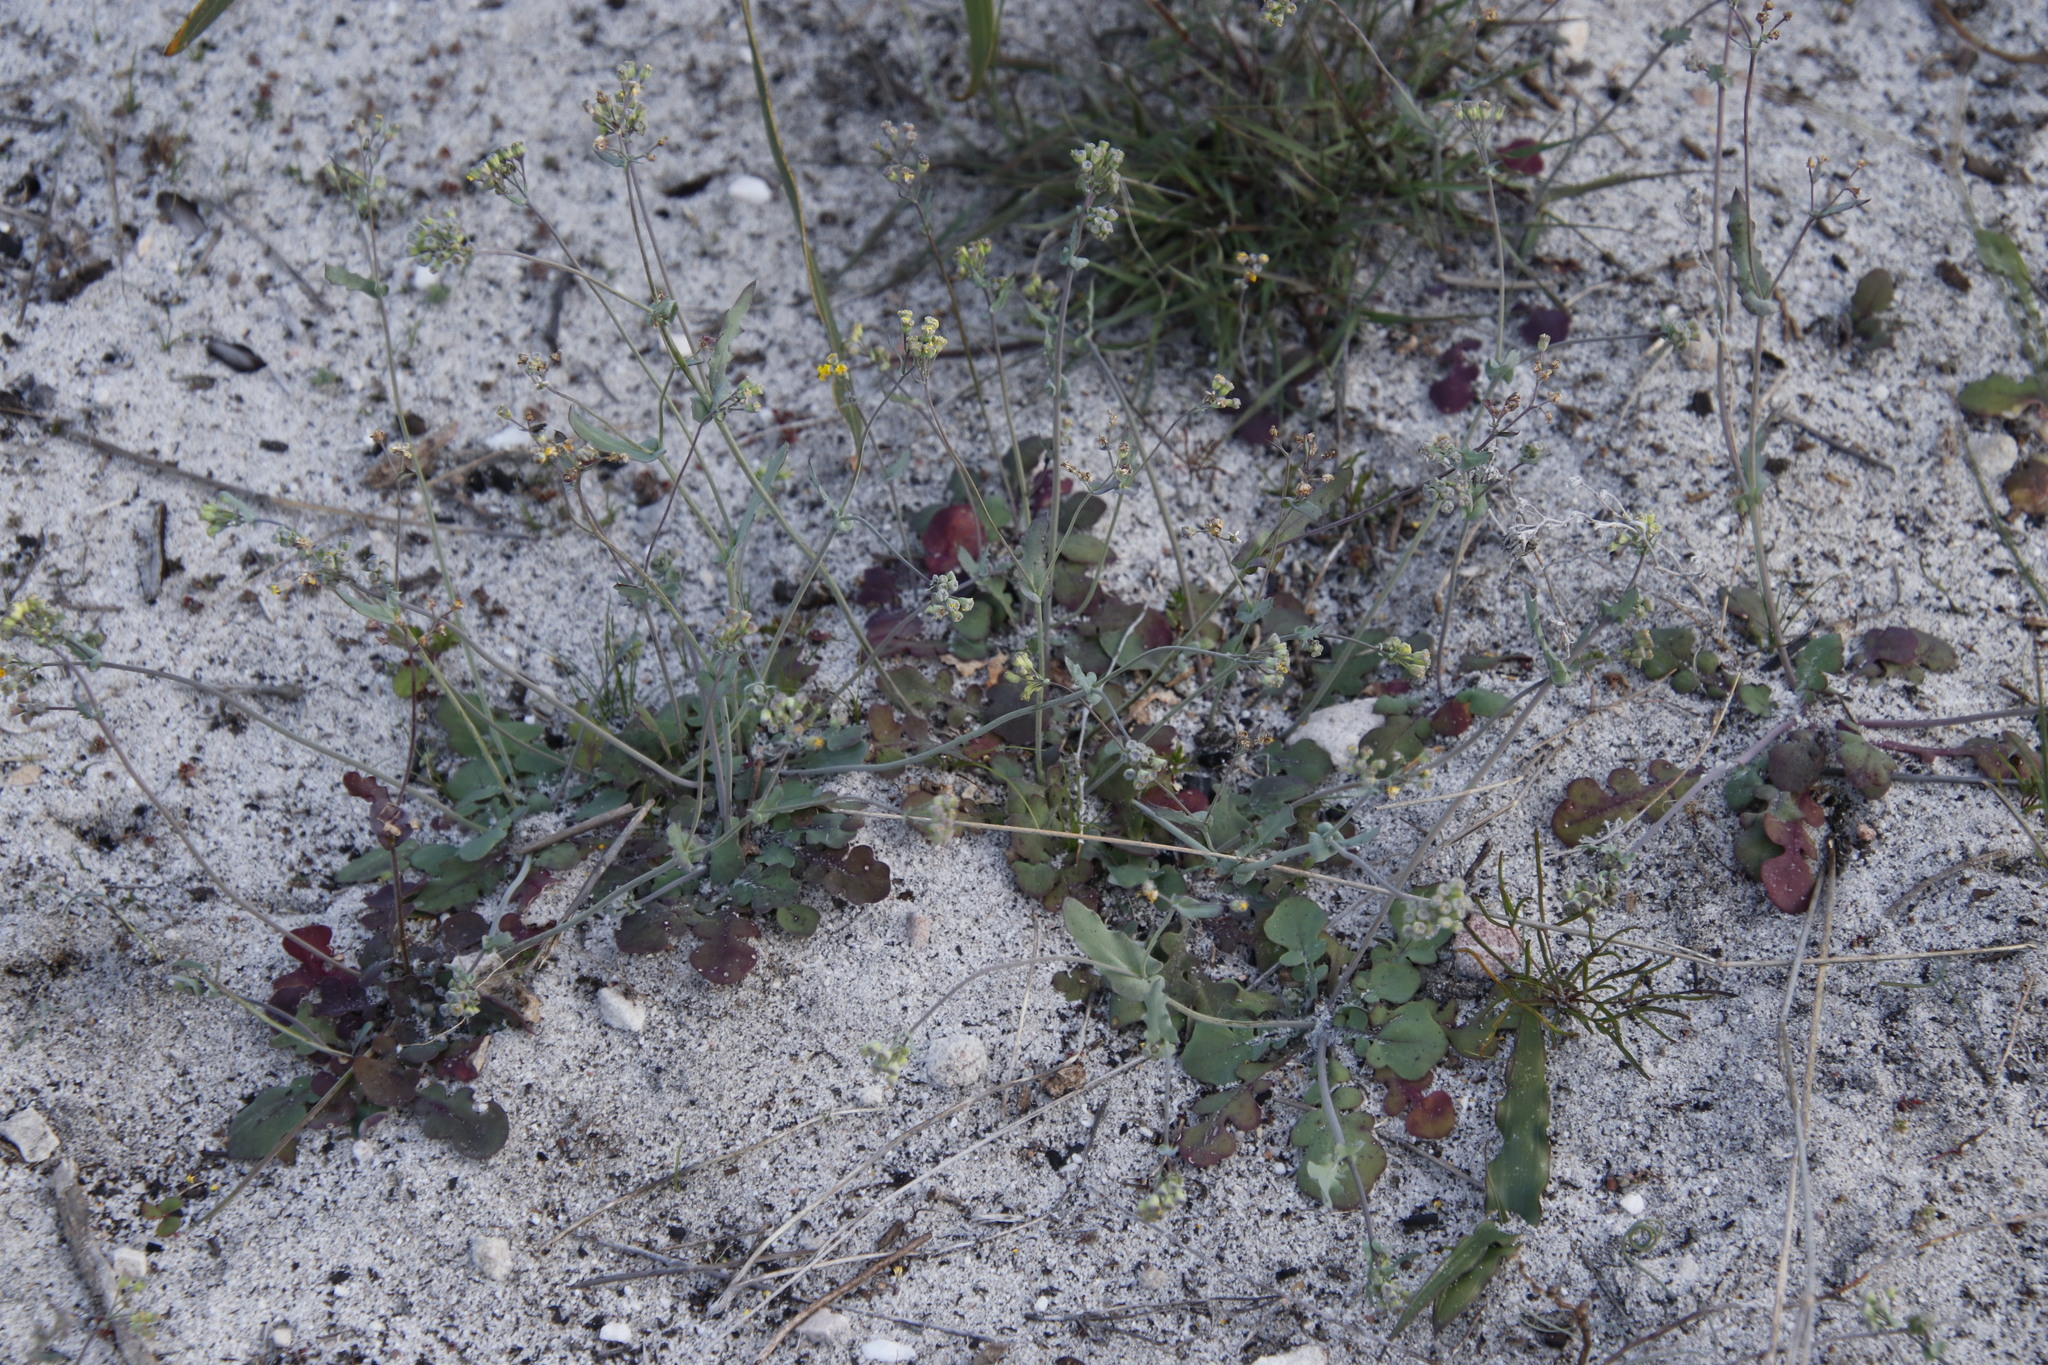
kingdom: Plantae
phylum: Tracheophyta
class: Magnoliopsida
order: Asterales
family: Asteraceae
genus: Gymnodiscus
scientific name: Gymnodiscus capillaris
